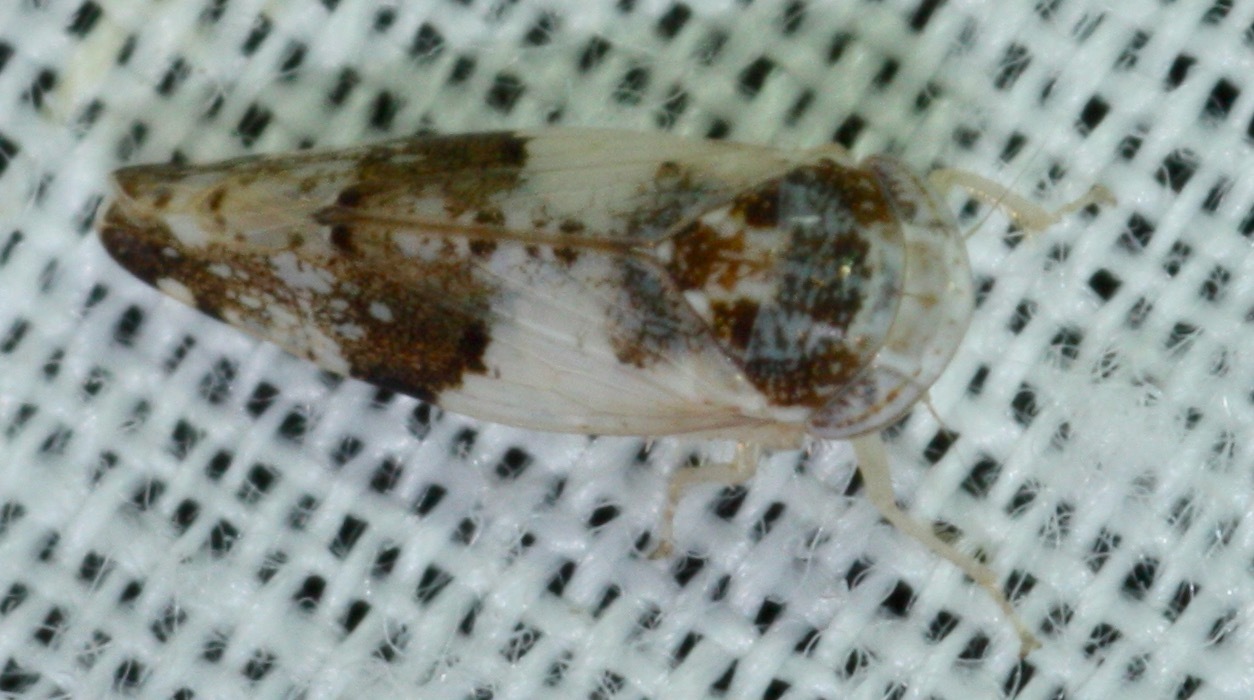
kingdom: Animalia
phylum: Arthropoda
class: Insecta
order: Hemiptera
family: Cicadellidae
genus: Norvellina
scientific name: Norvellina scitula
